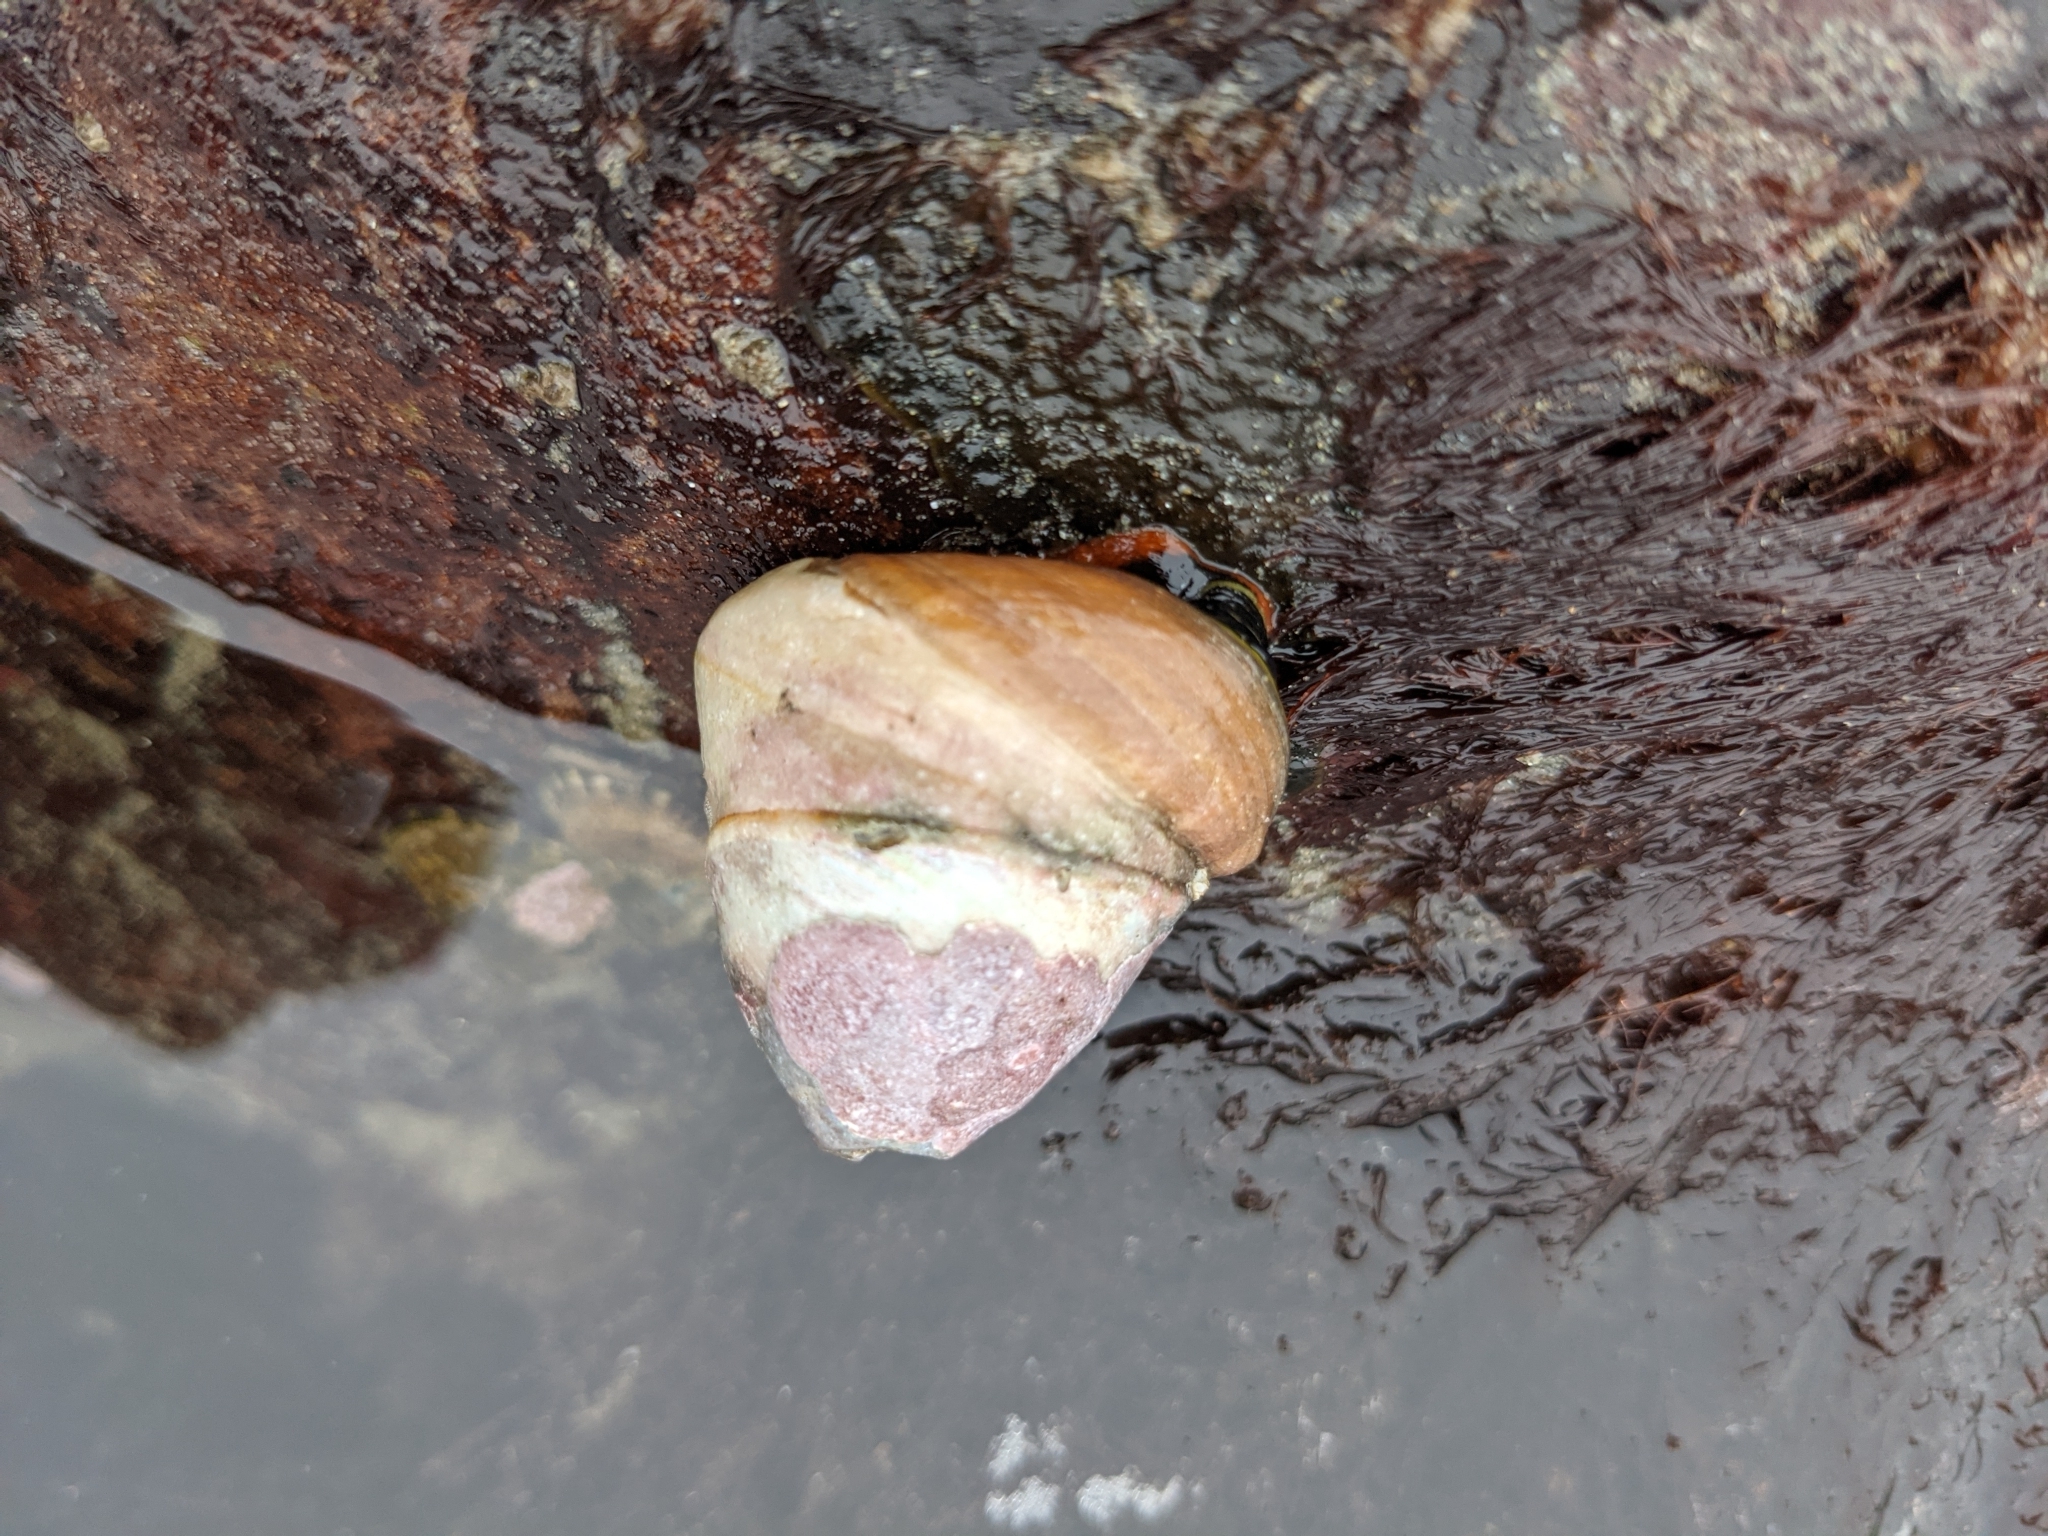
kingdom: Animalia
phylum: Mollusca
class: Gastropoda
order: Trochida
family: Tegulidae
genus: Tegula
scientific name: Tegula brunnea
